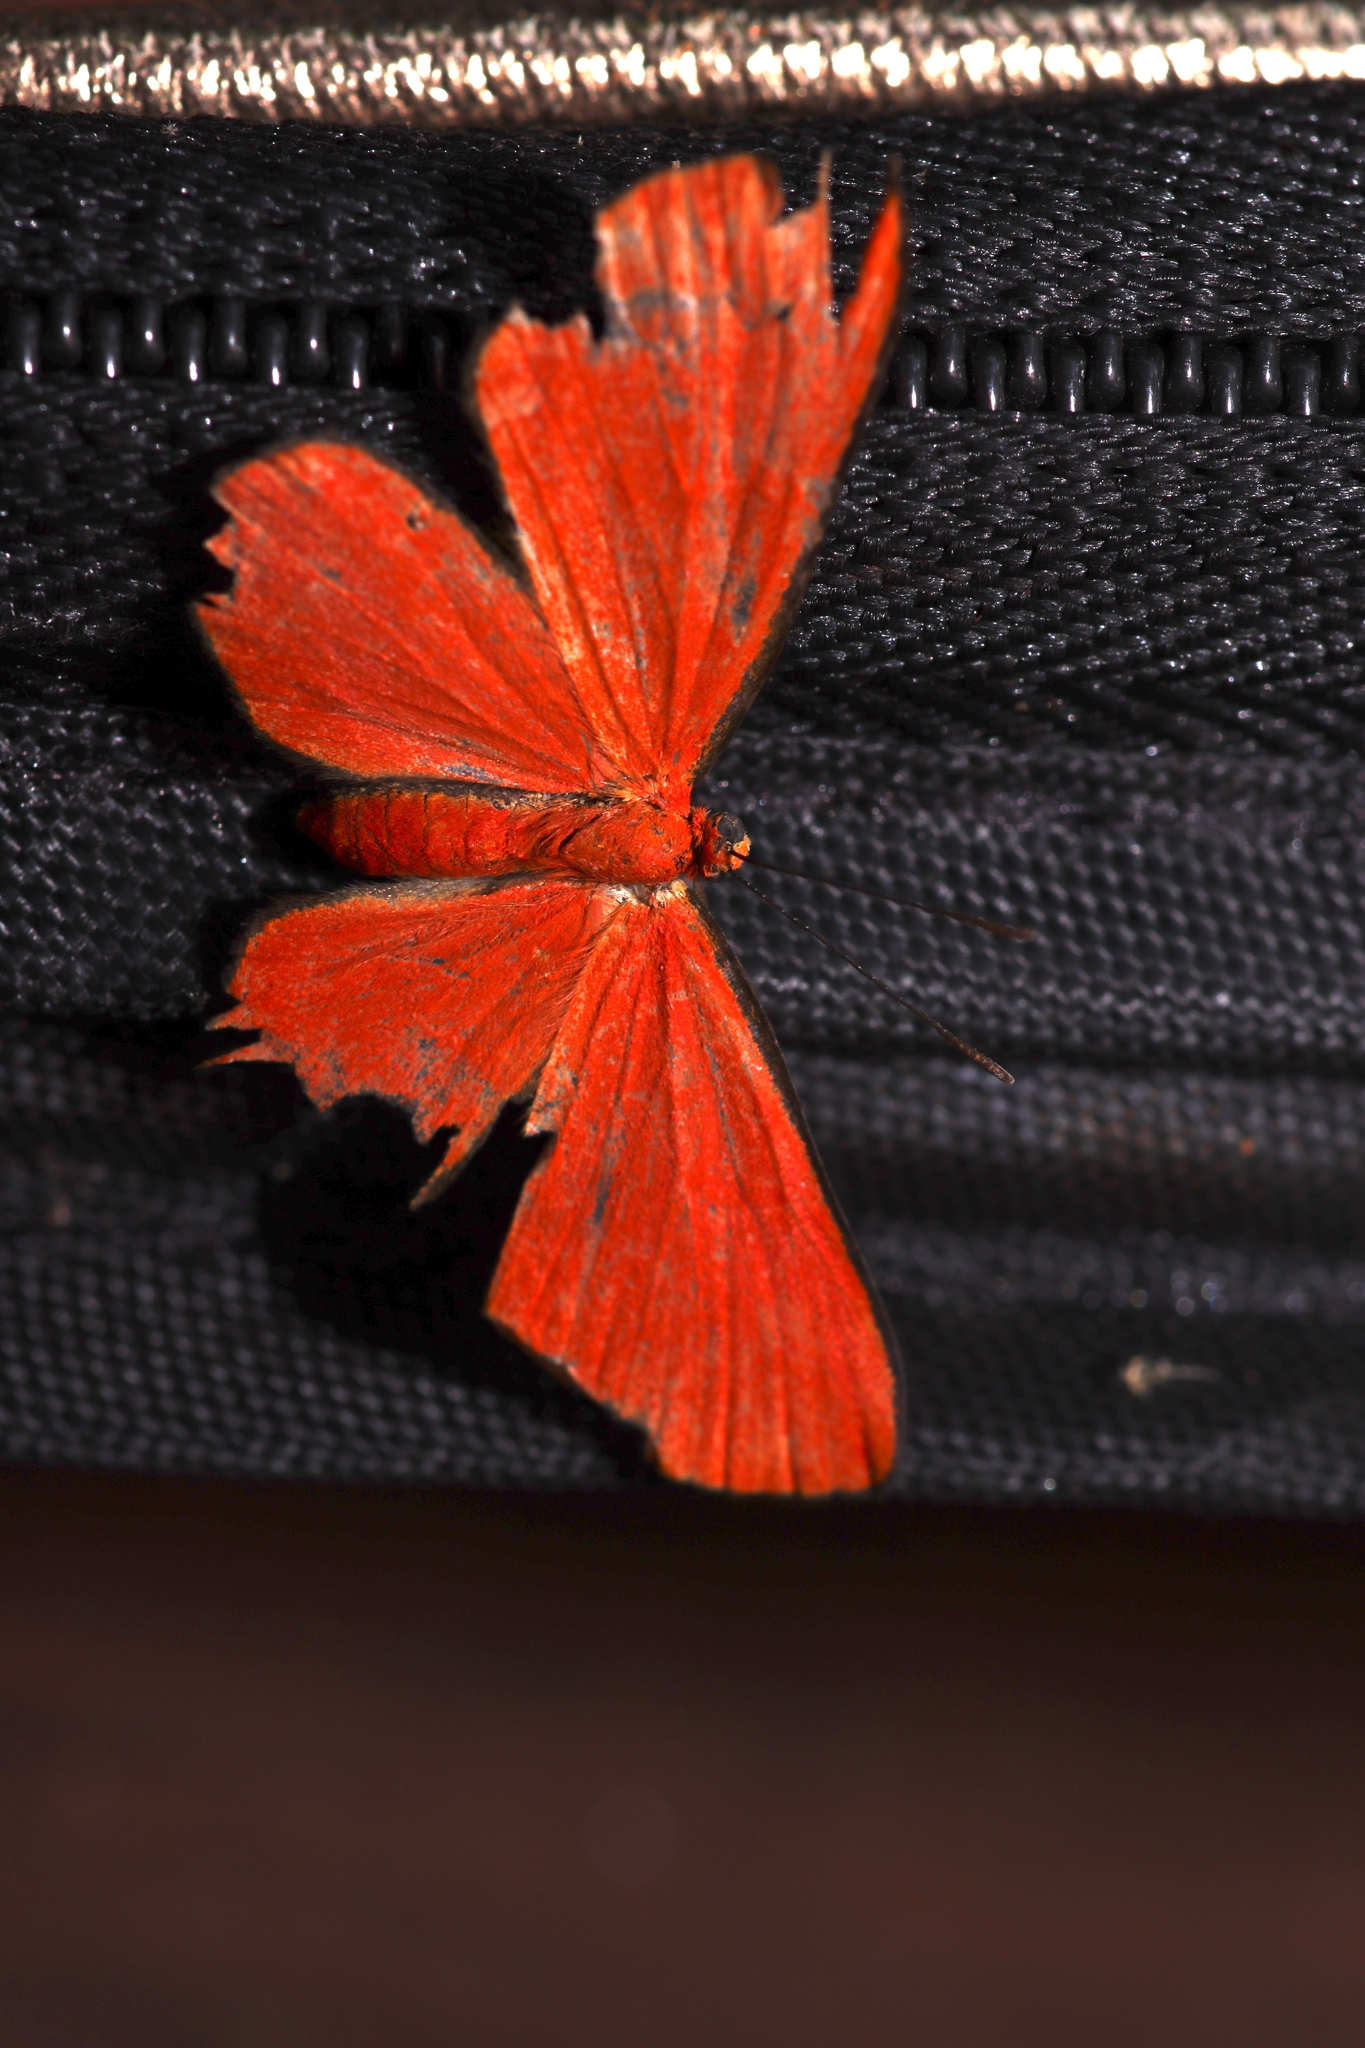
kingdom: Animalia
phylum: Arthropoda
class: Insecta
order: Lepidoptera
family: Lycaenidae
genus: Mesene
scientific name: Mesene phareus
